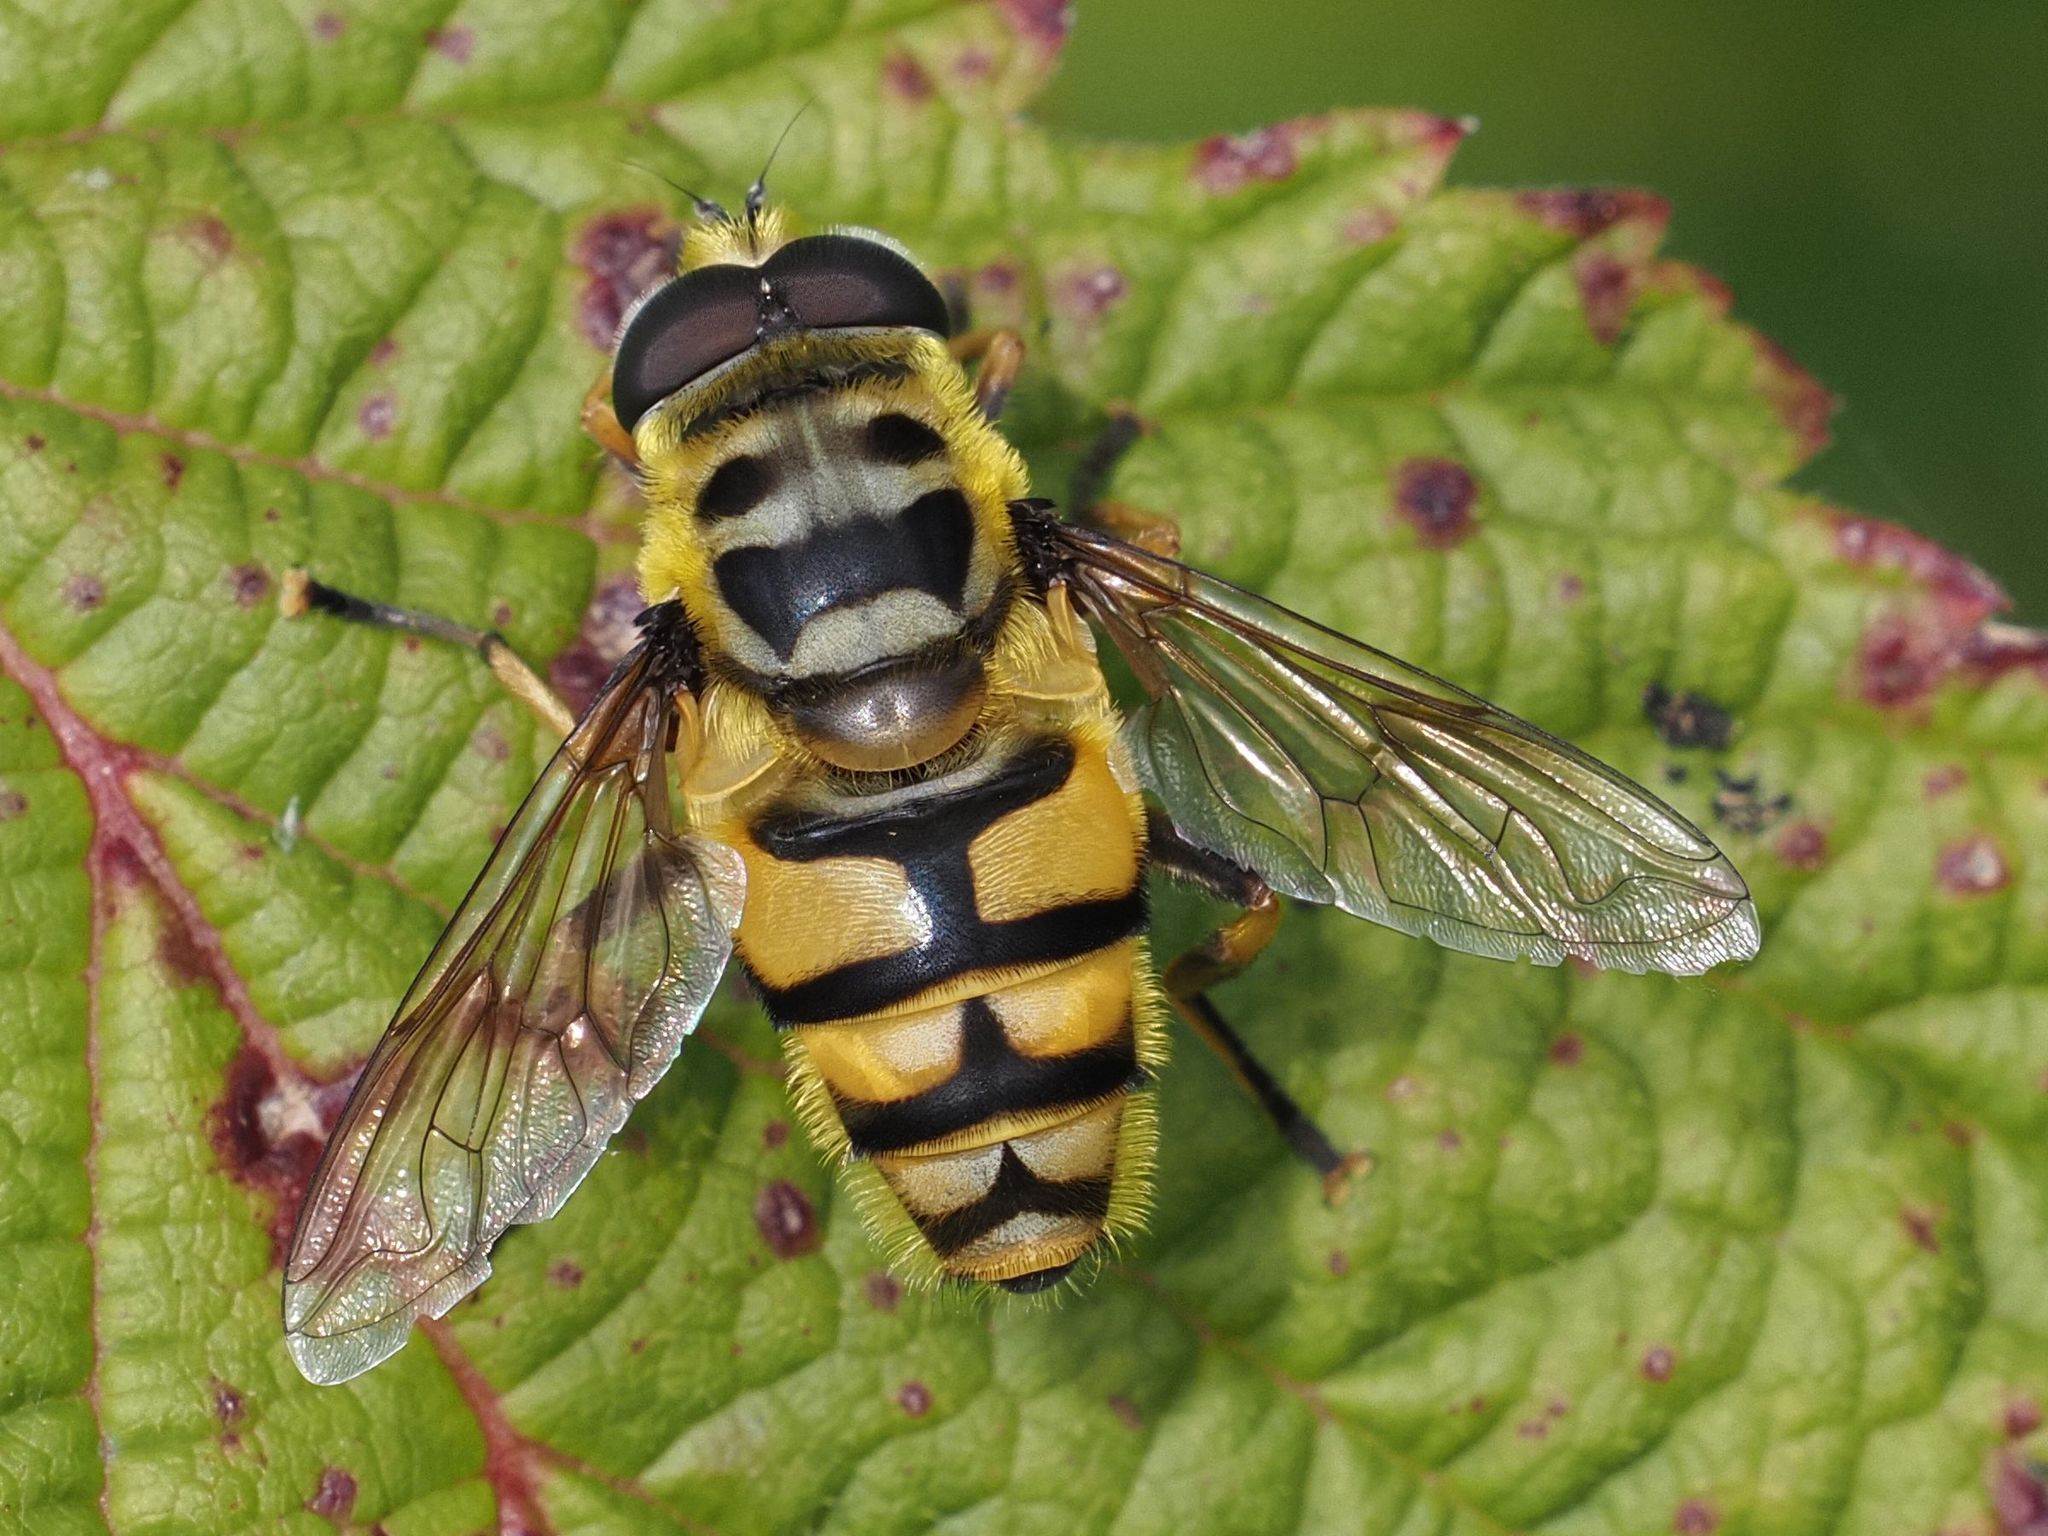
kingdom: Animalia
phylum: Arthropoda
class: Insecta
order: Diptera
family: Syrphidae
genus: Myathropa
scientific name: Myathropa florea
